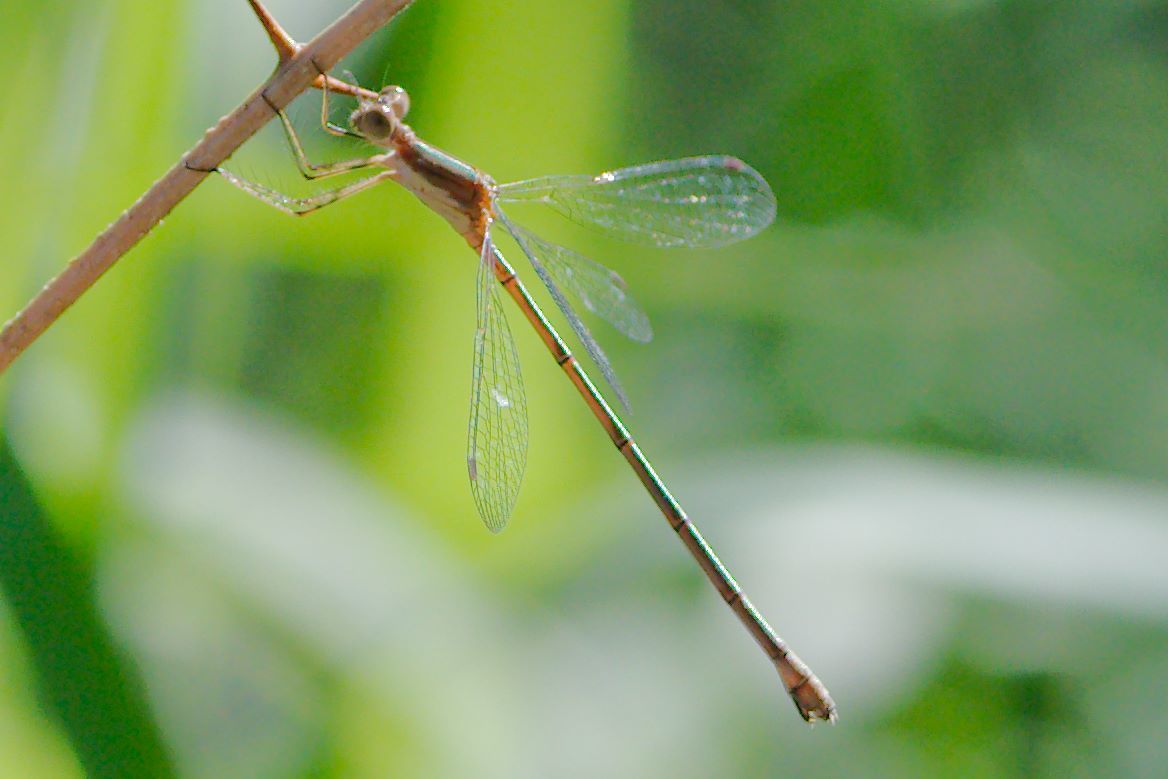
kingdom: Animalia
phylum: Arthropoda
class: Insecta
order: Odonata
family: Lestidae
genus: Lestes
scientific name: Lestes forficula
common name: Rainpool spreadwing
